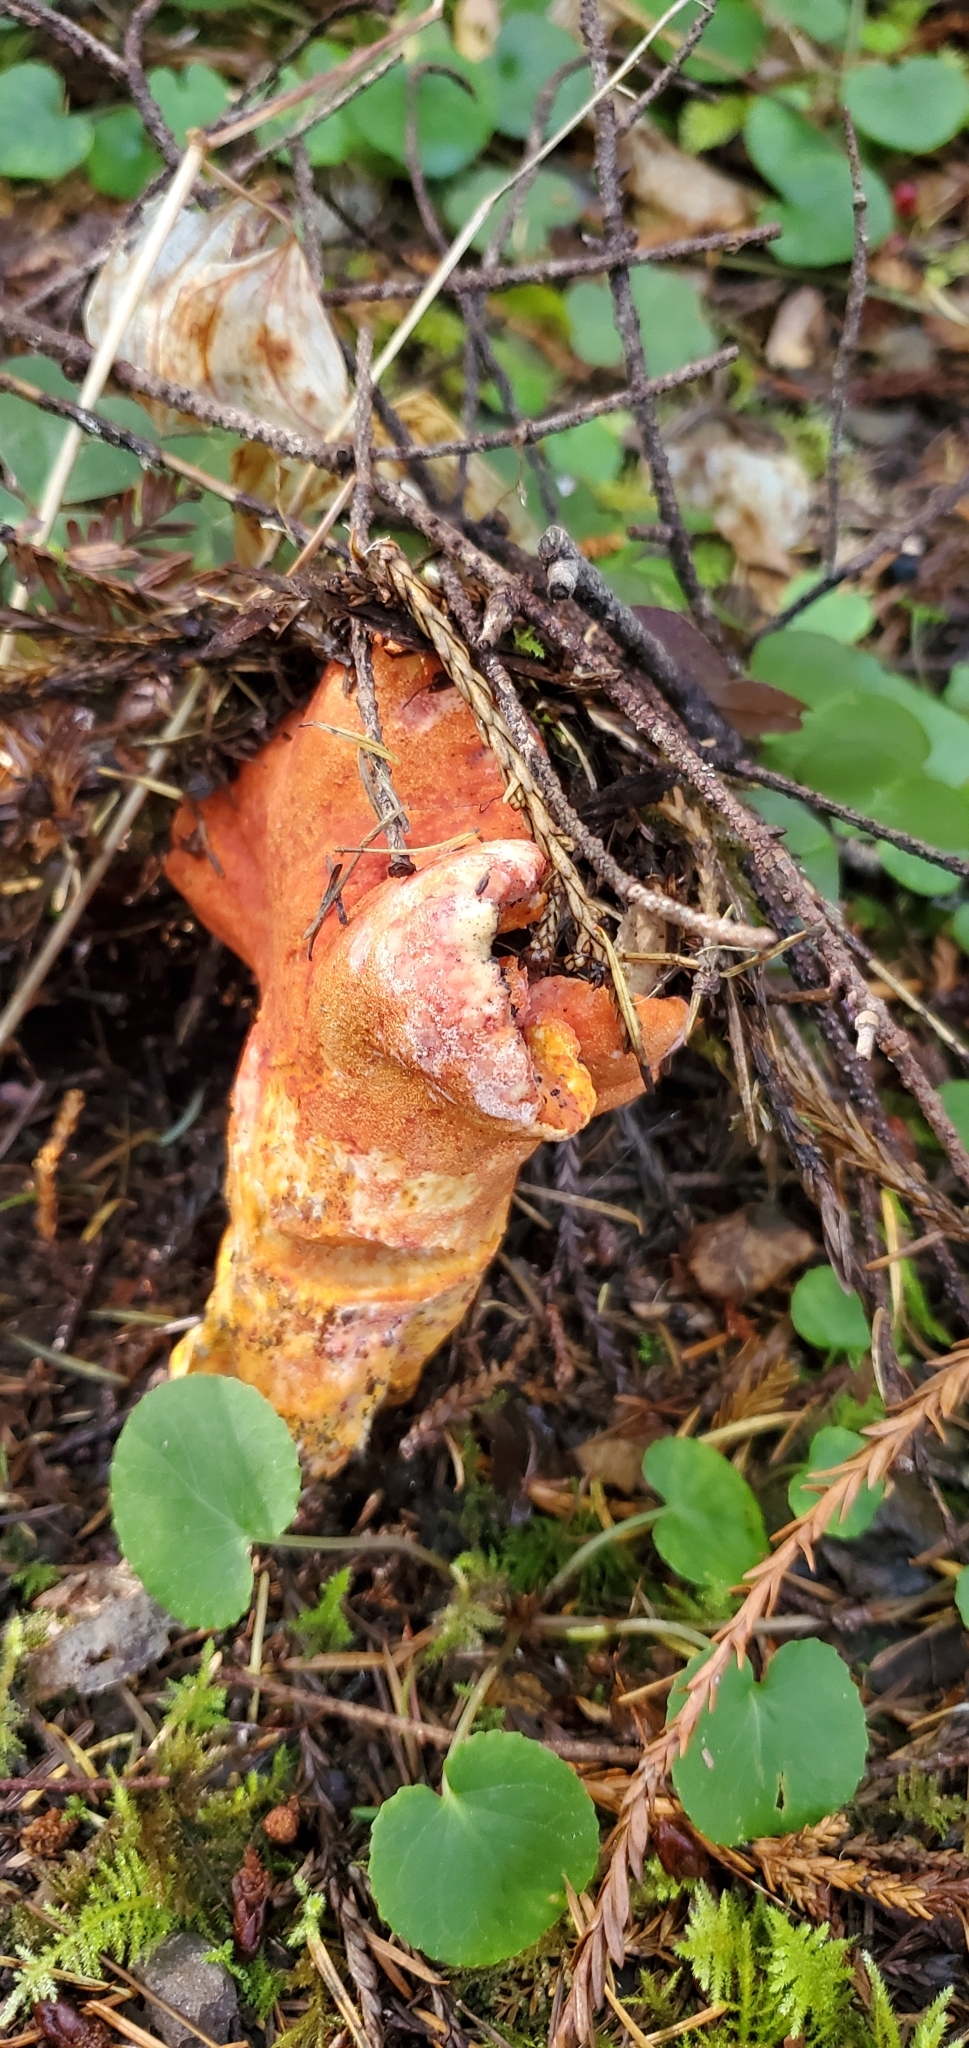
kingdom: Fungi
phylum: Ascomycota
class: Sordariomycetes
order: Hypocreales
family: Hypocreaceae
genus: Hypomyces
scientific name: Hypomyces lactifluorum
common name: Lobster mushroom
